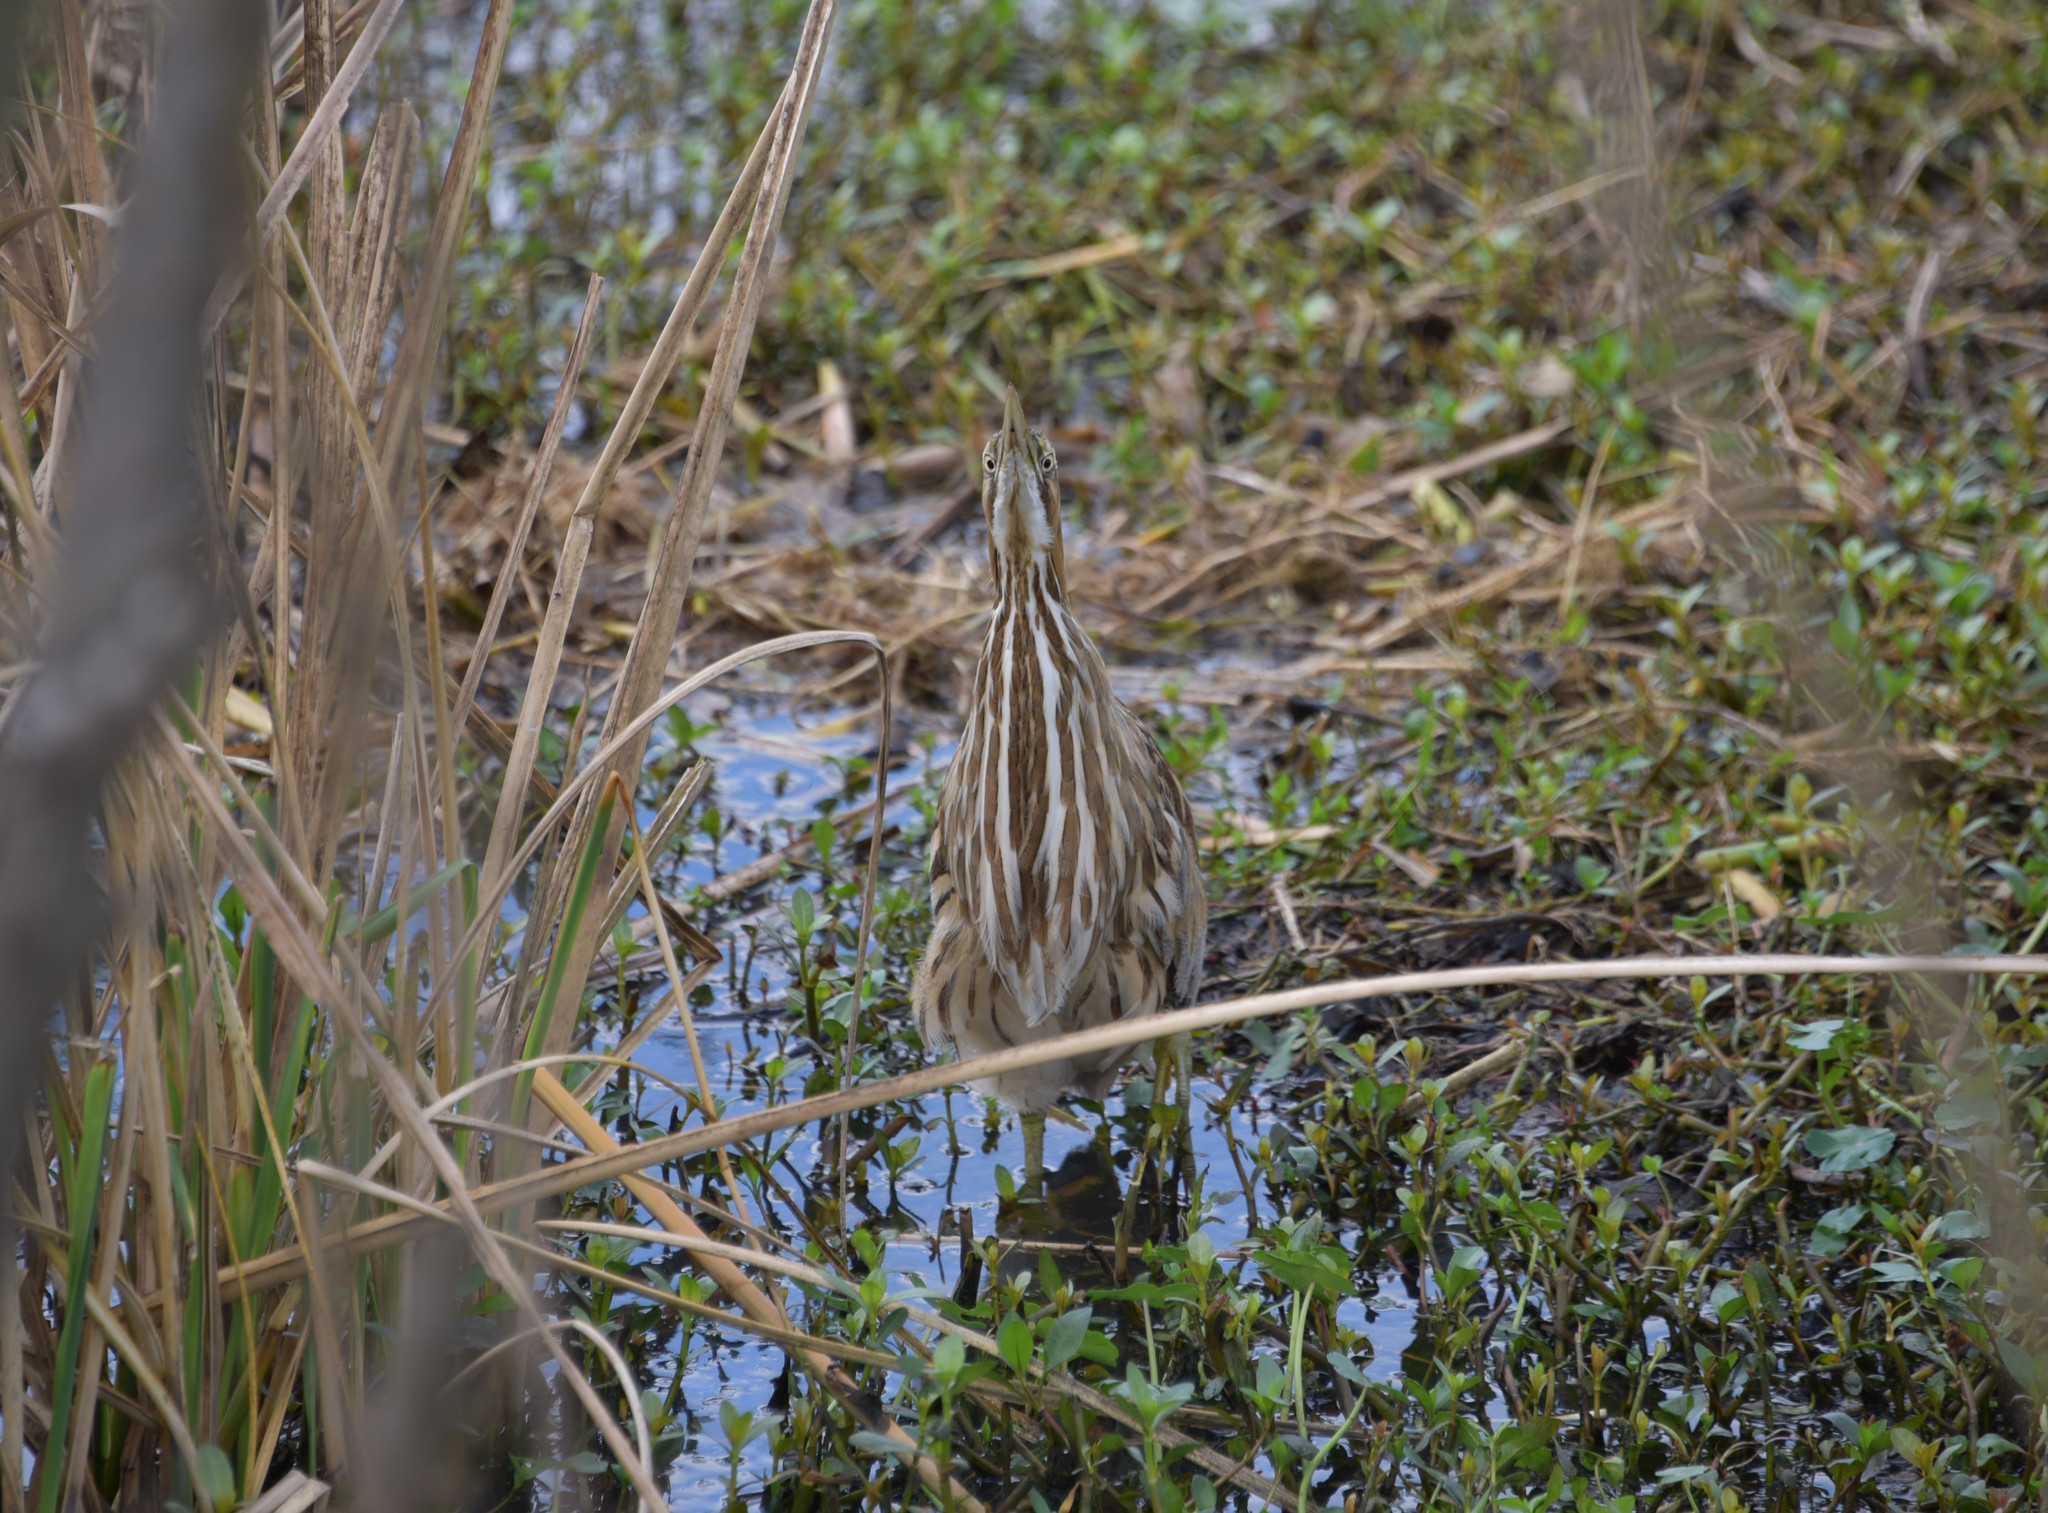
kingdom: Animalia
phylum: Chordata
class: Aves
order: Pelecaniformes
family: Ardeidae
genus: Botaurus
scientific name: Botaurus lentiginosus
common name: American bittern
